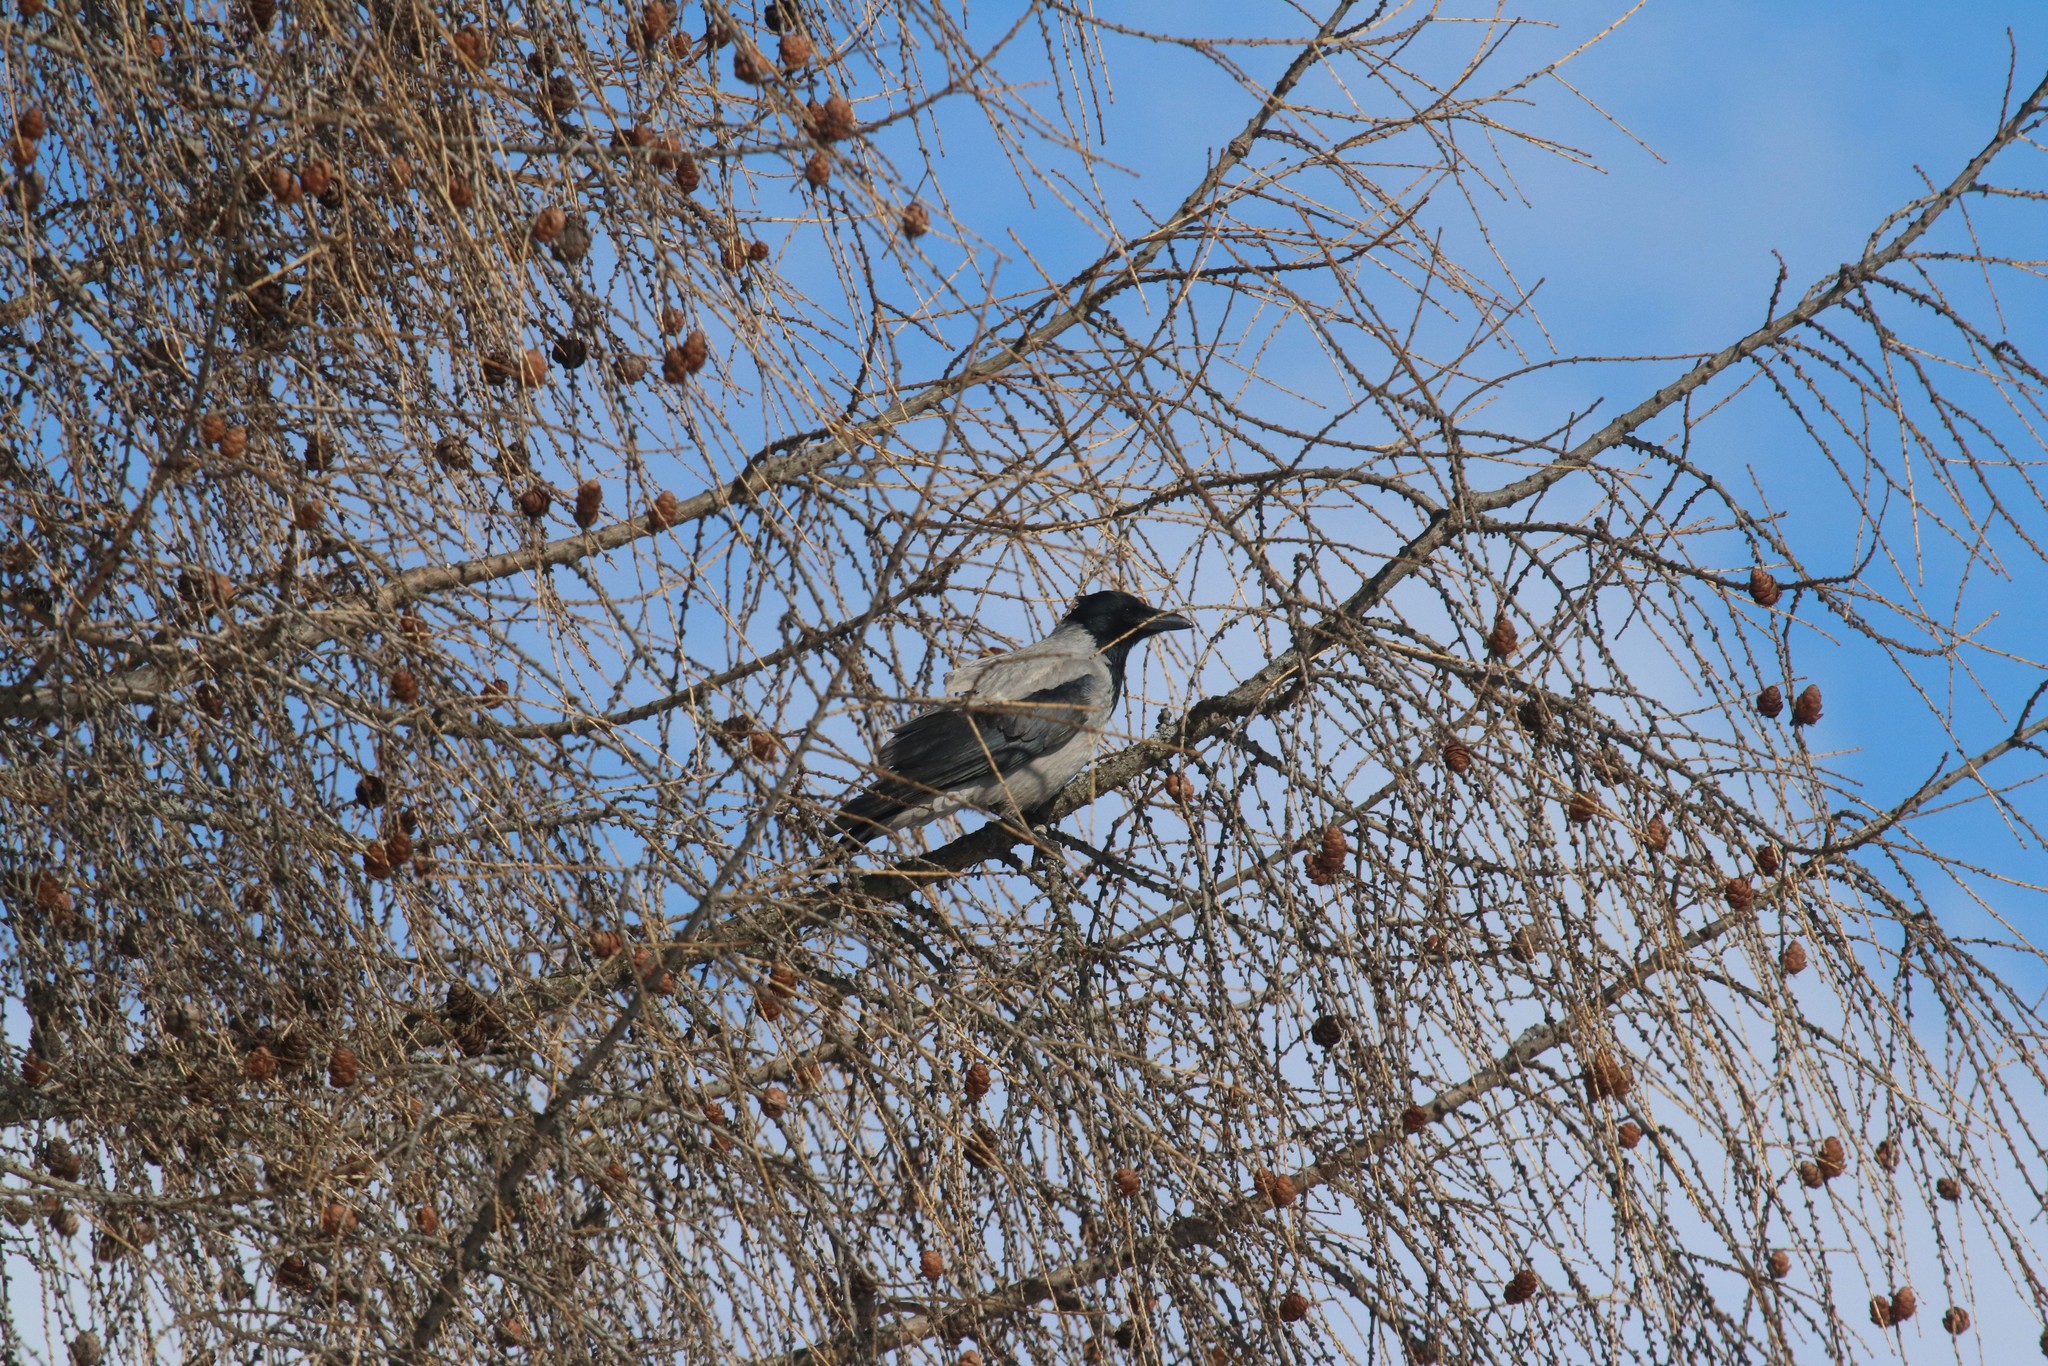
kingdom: Animalia
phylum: Chordata
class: Aves
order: Passeriformes
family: Corvidae
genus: Corvus
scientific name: Corvus cornix
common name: Hooded crow
